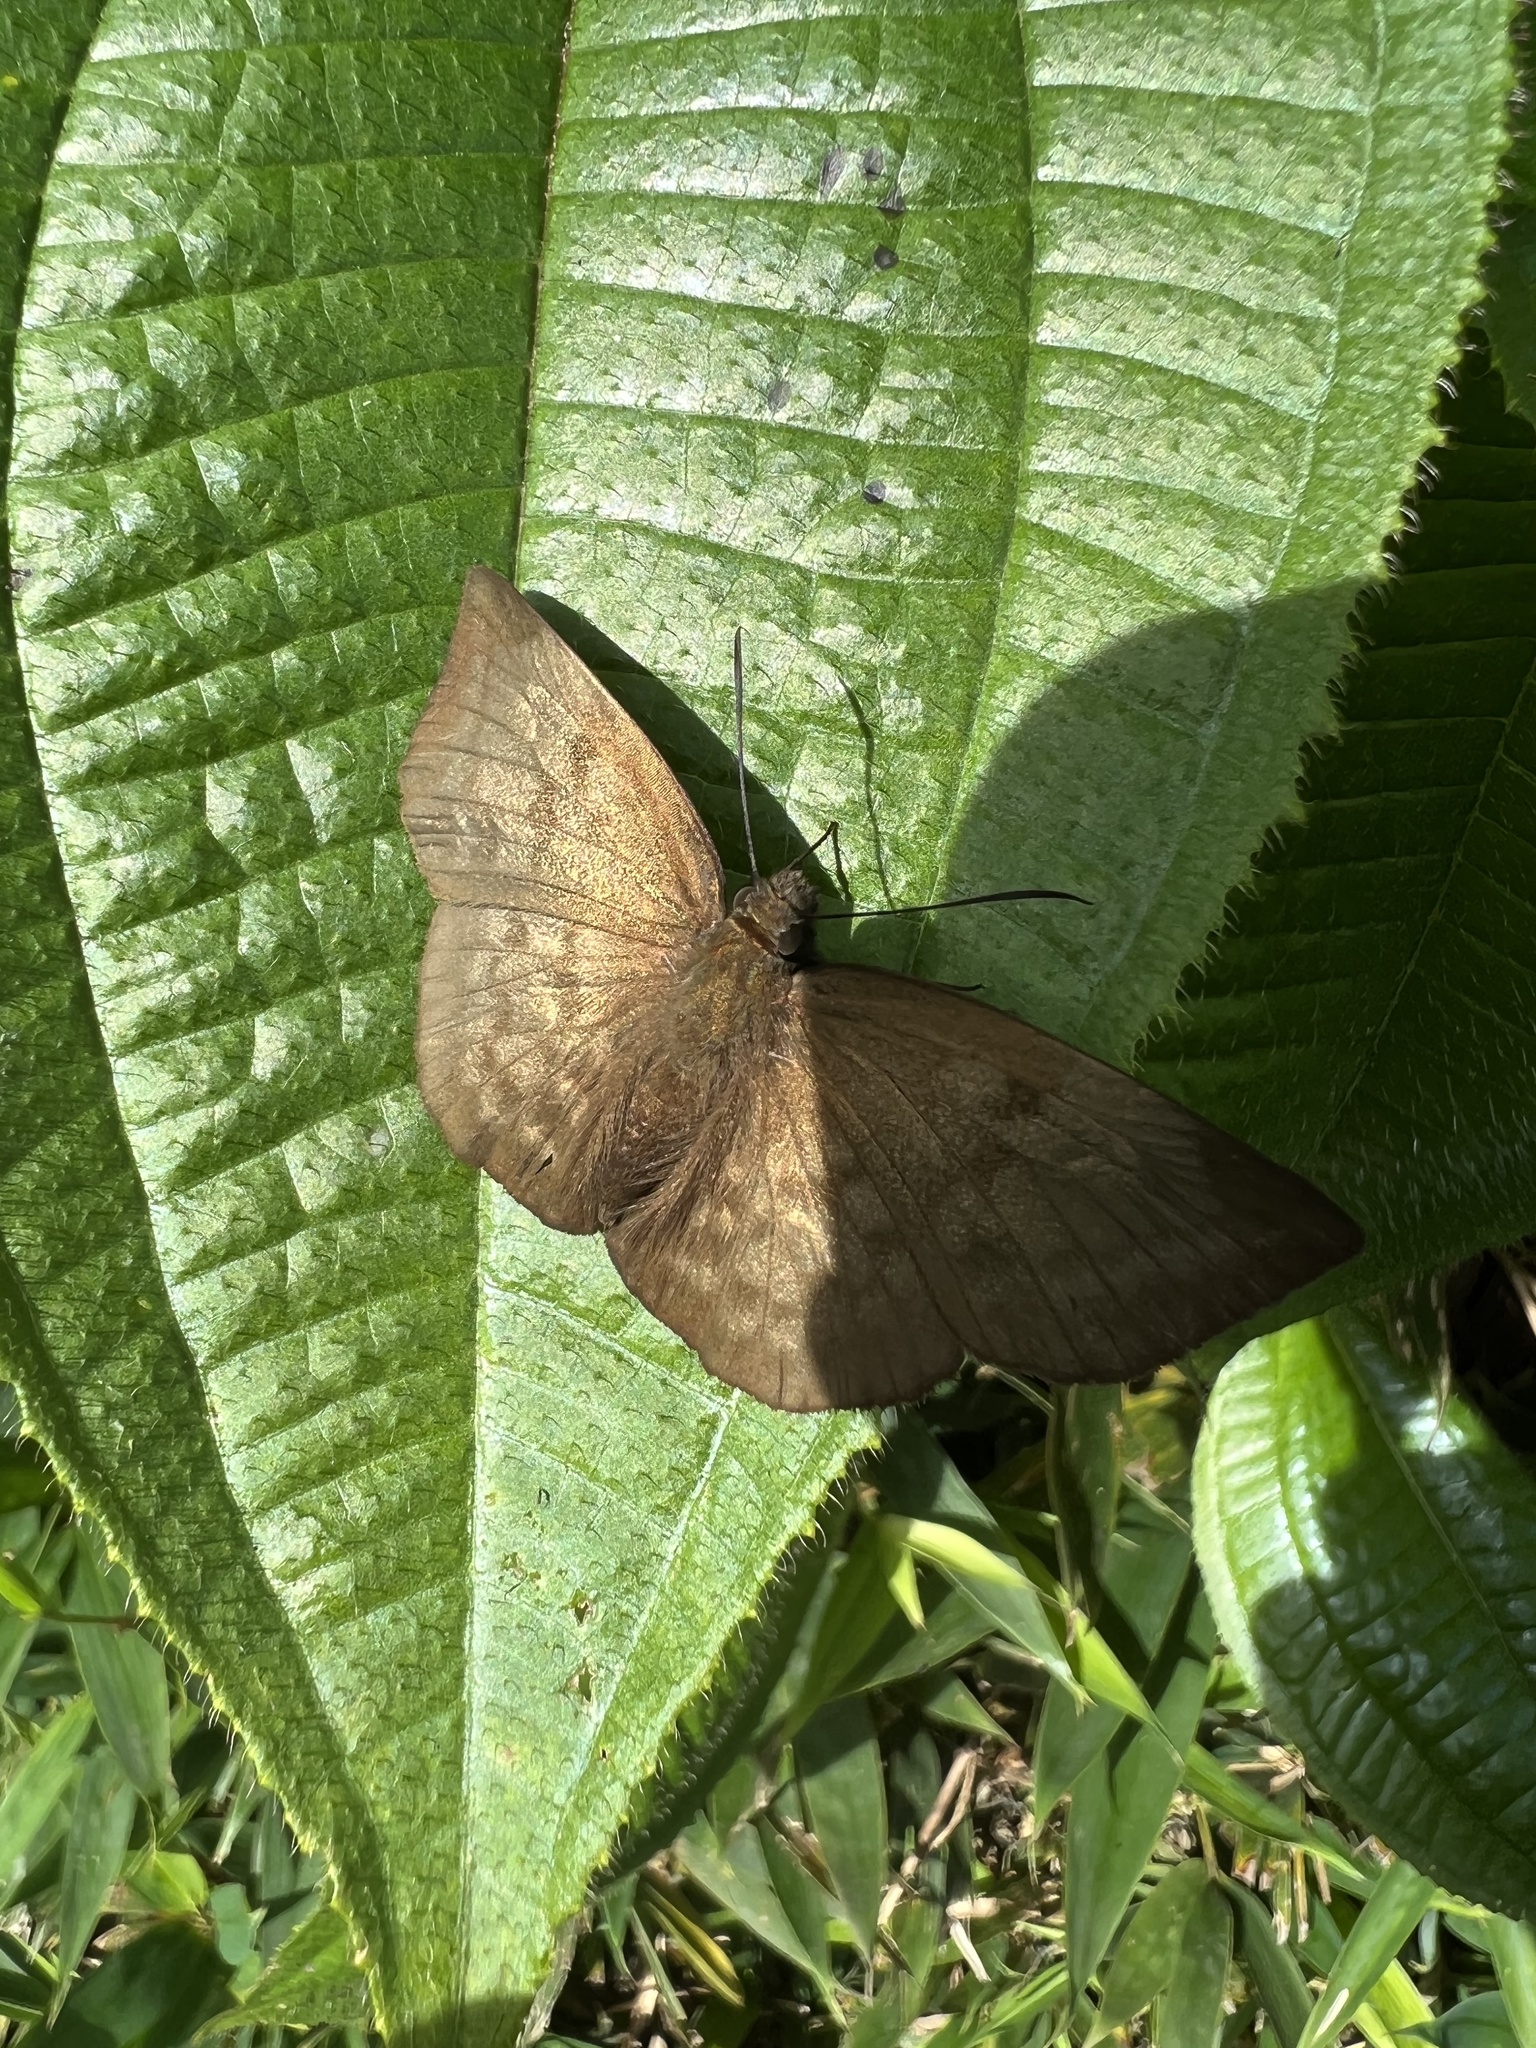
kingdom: Animalia
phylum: Arthropoda
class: Insecta
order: Lepidoptera
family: Hesperiidae
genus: Achlyodes
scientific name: Achlyodes pallida
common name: Pale sicklewing
